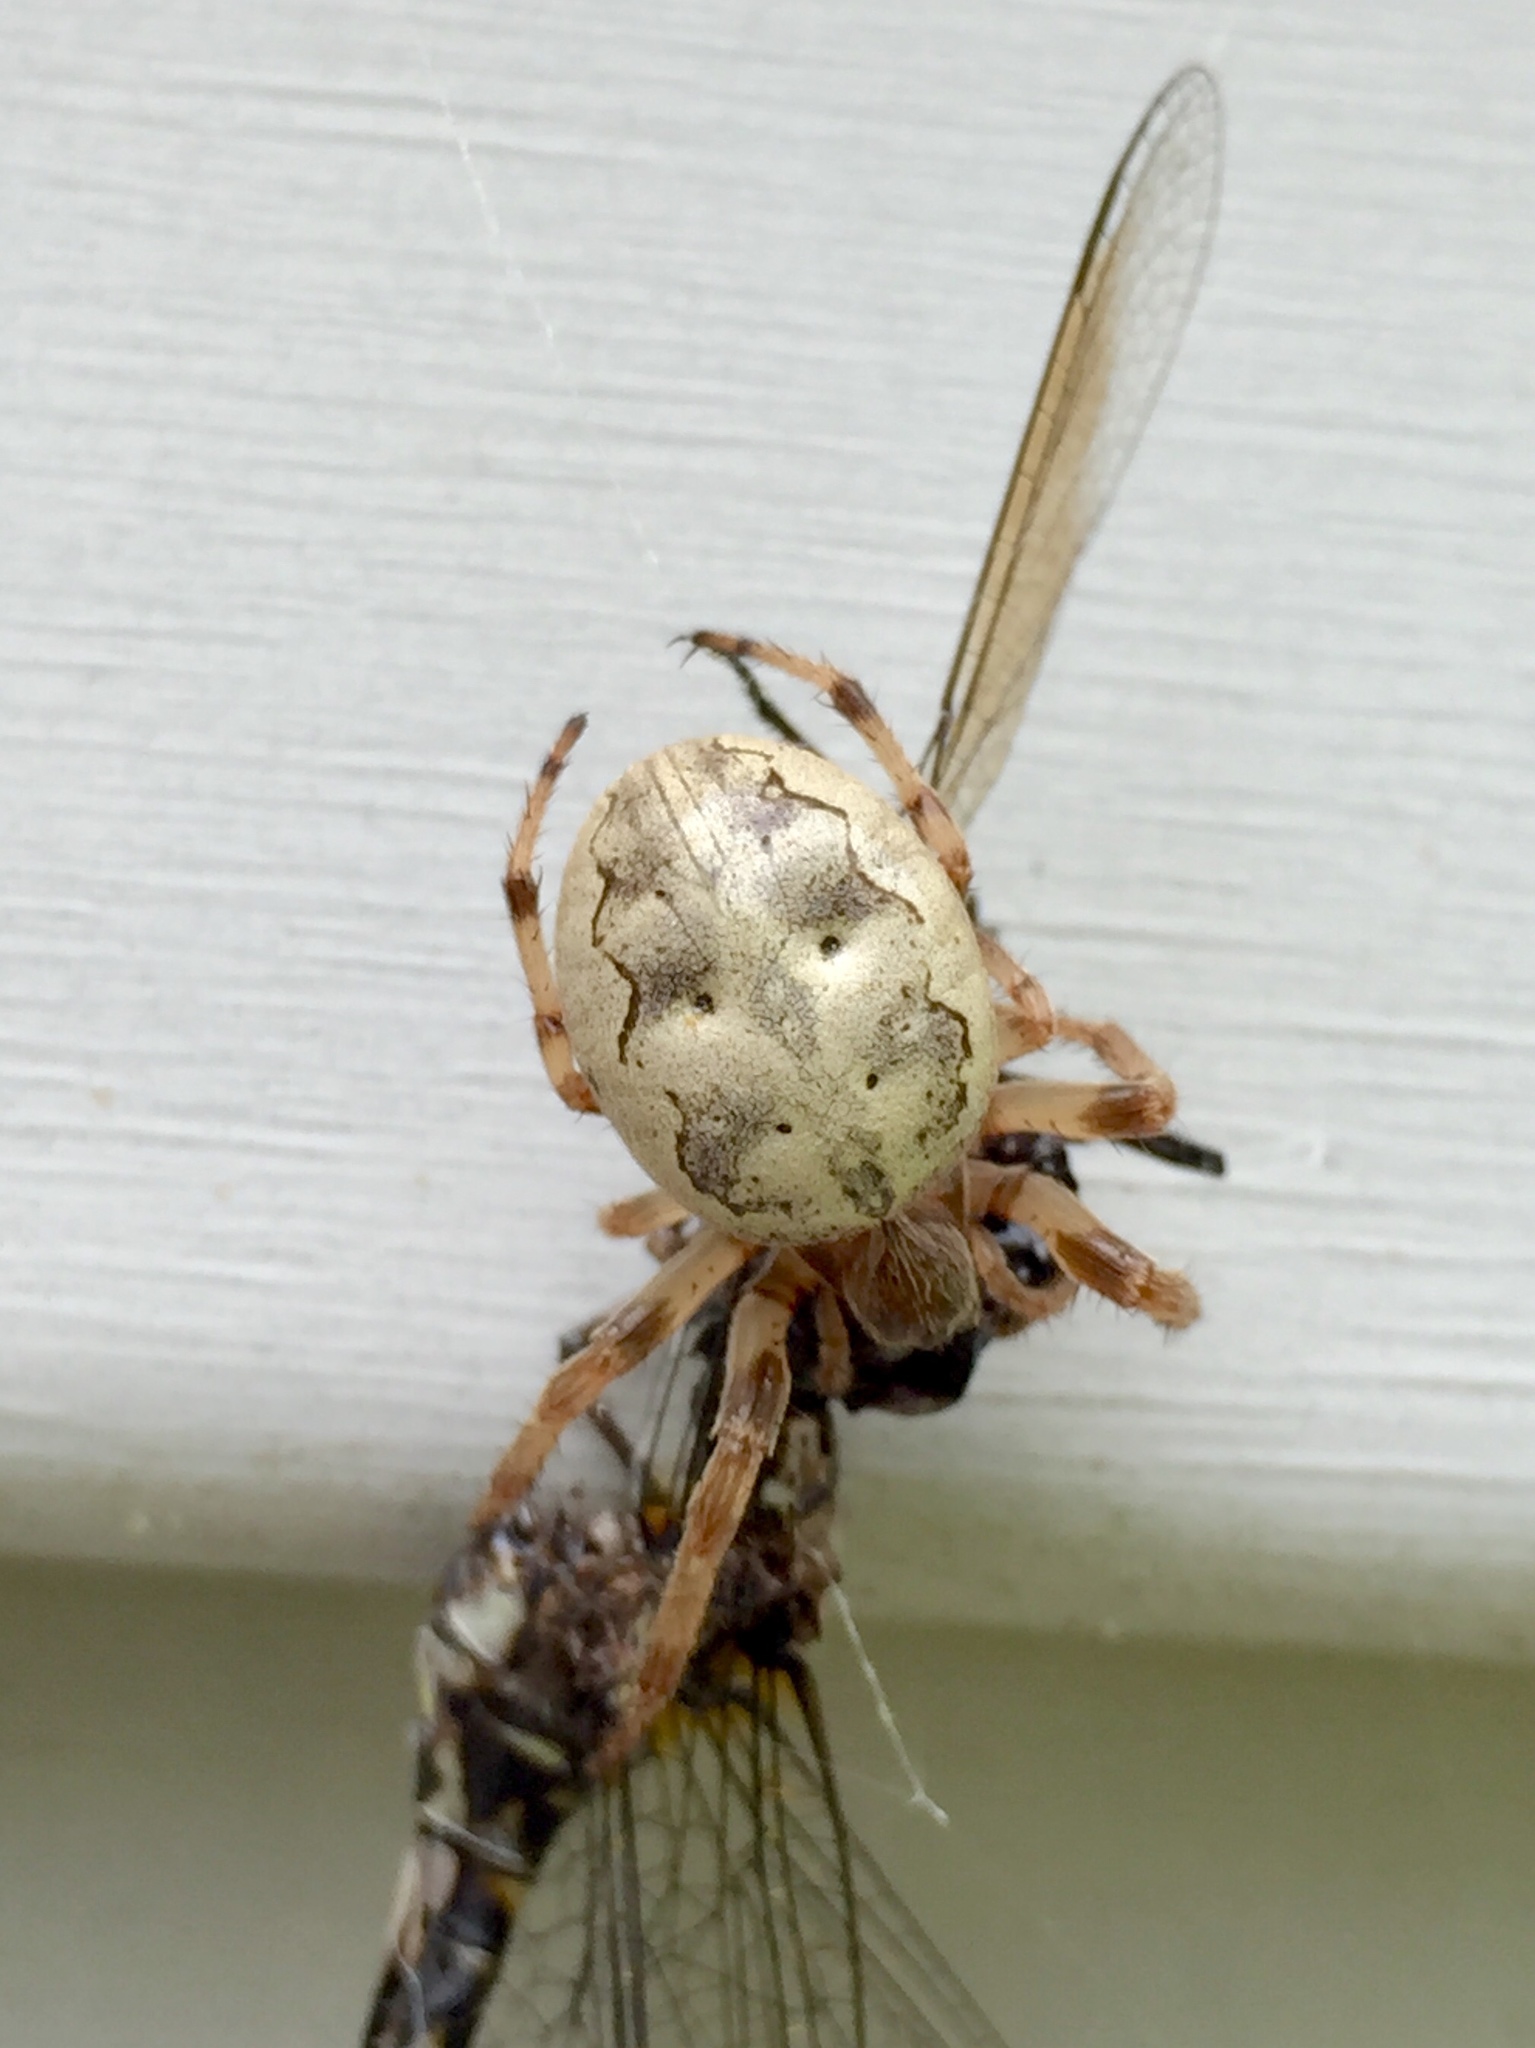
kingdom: Animalia
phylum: Arthropoda
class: Arachnida
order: Araneae
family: Araneidae
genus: Larinioides
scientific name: Larinioides cornutus
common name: Furrow orbweaver
